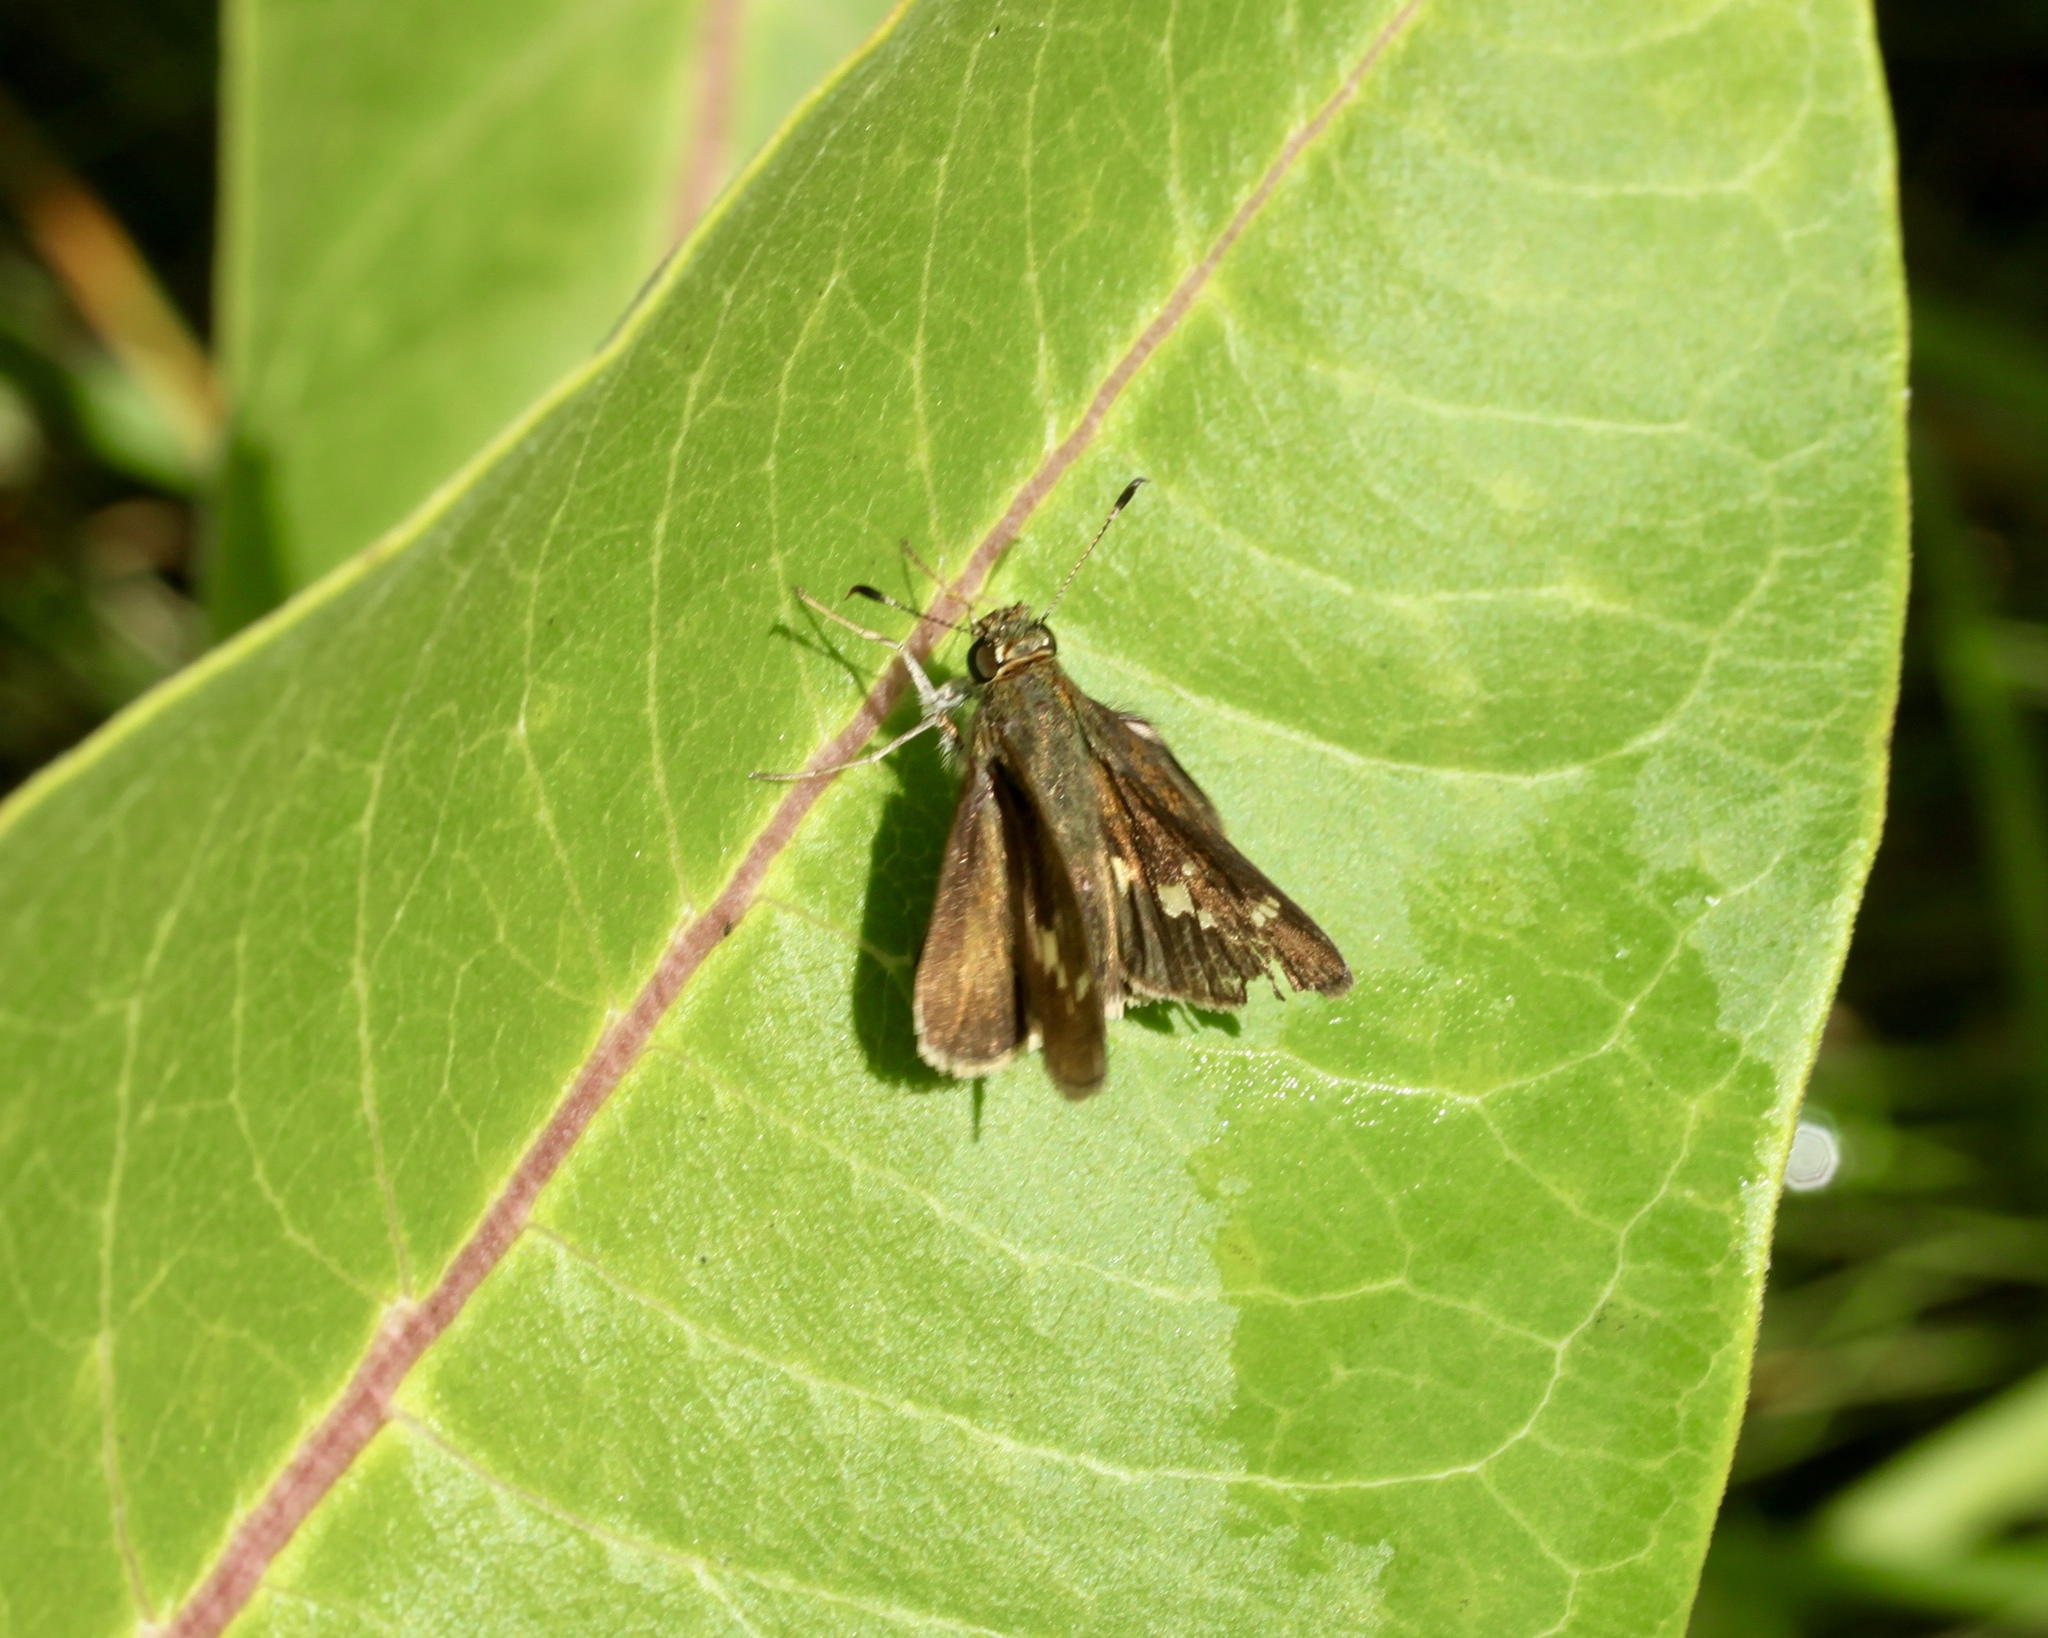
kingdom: Animalia
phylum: Arthropoda
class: Insecta
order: Lepidoptera
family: Hesperiidae
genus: Vernia
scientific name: Vernia verna
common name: Little glassywing
